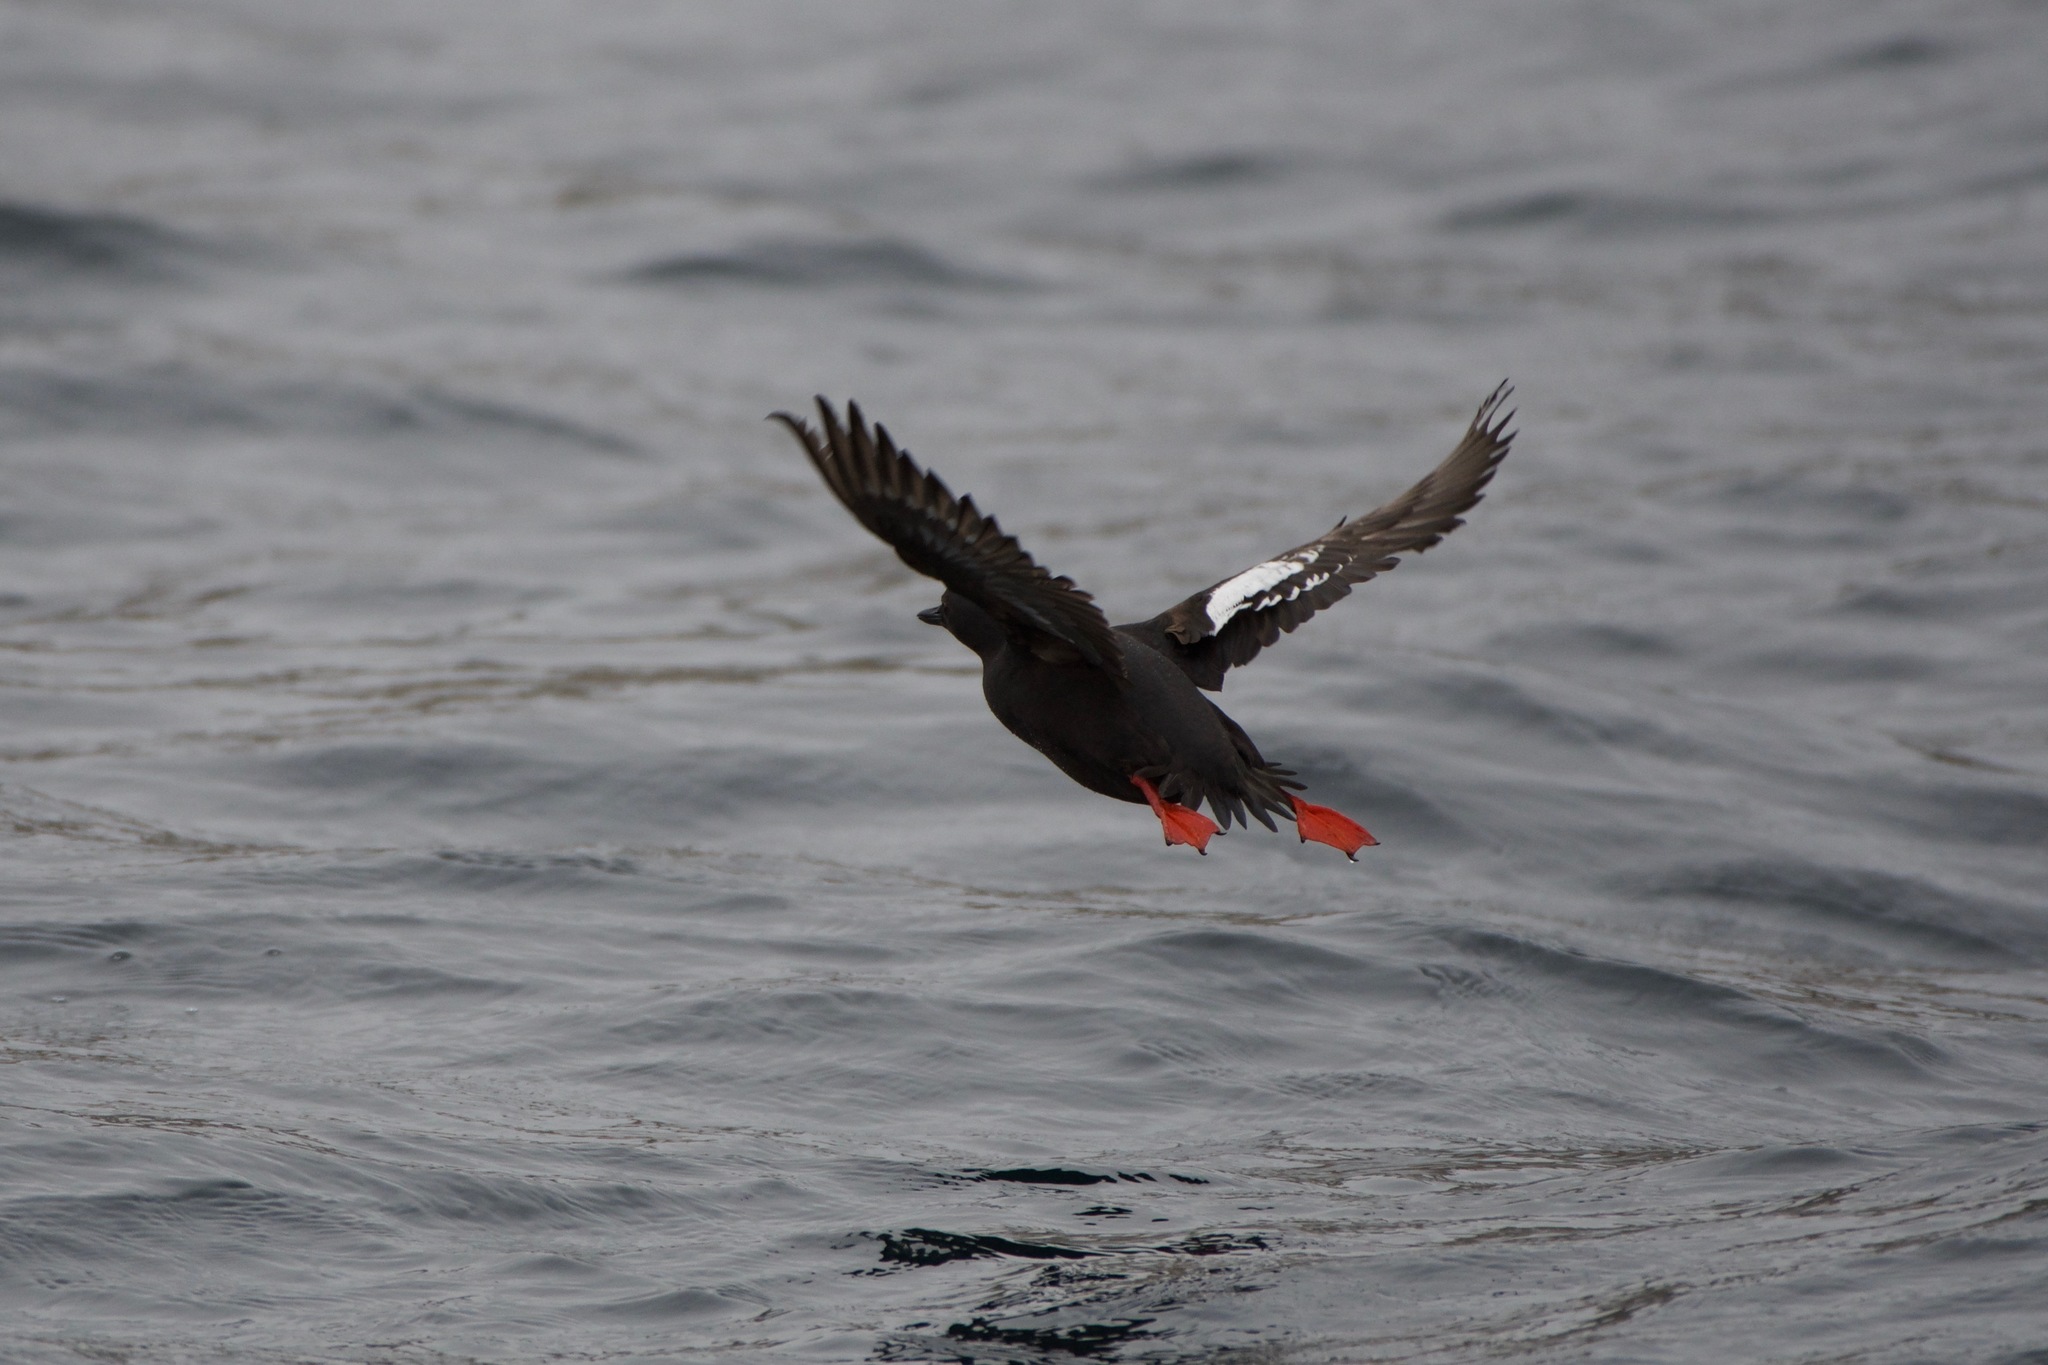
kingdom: Animalia
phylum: Chordata
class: Aves
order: Charadriiformes
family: Alcidae
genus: Cepphus
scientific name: Cepphus columba
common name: Pigeon guillemot
